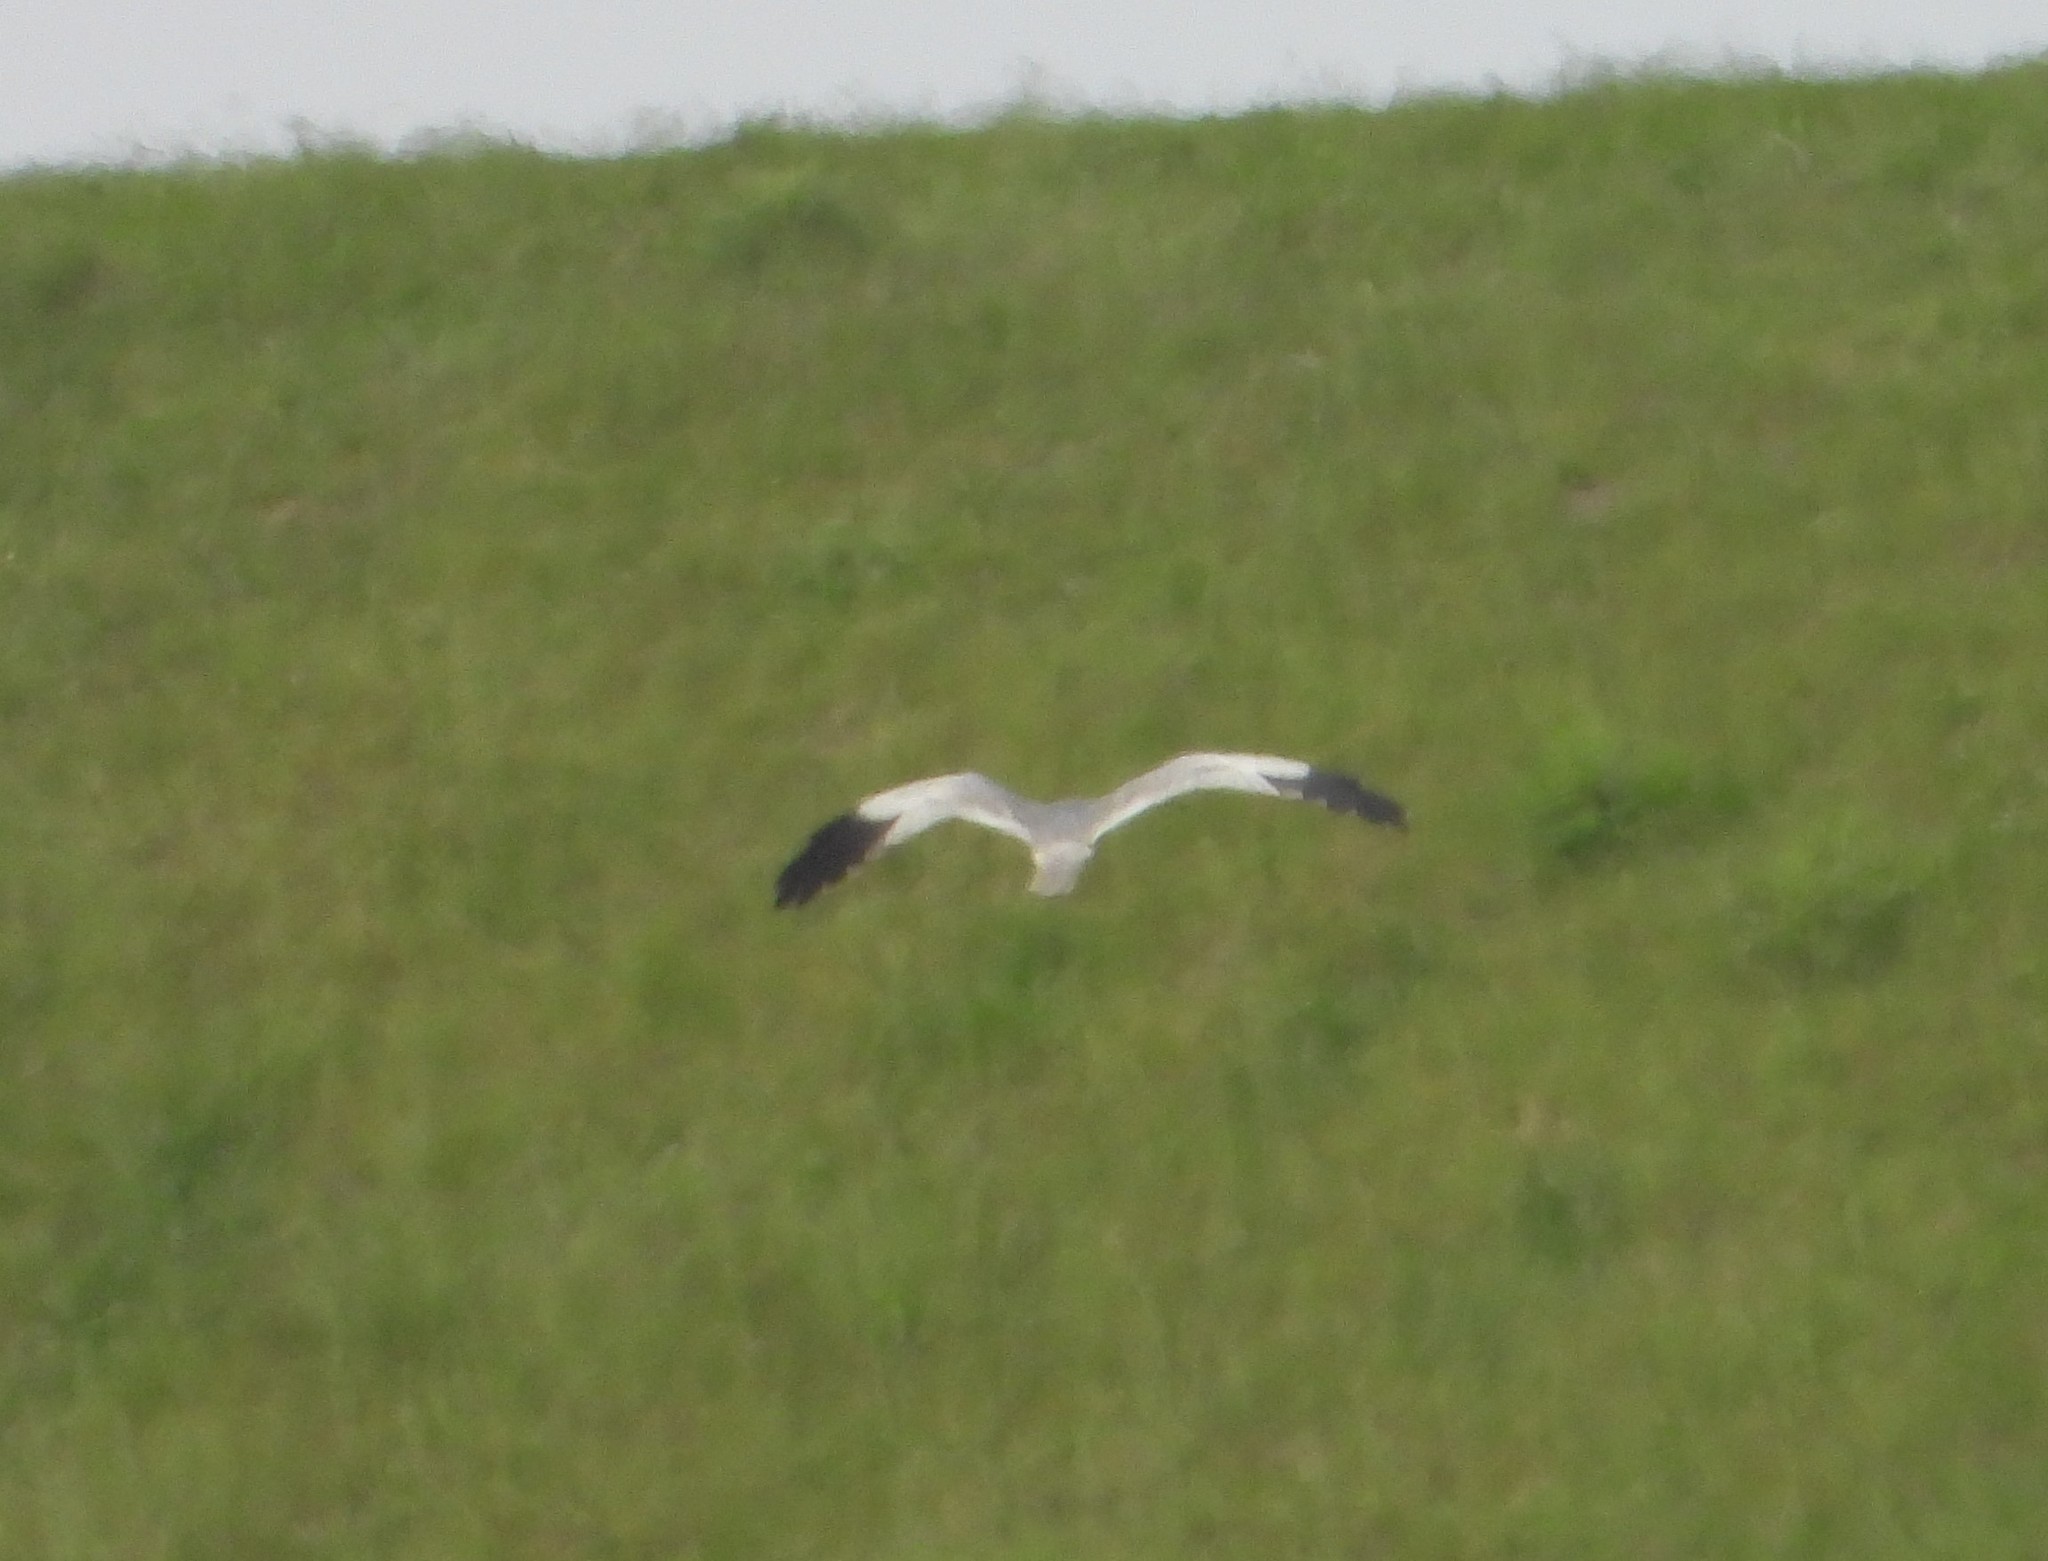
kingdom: Animalia
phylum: Chordata
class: Aves
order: Accipitriformes
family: Accipitridae
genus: Circus
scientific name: Circus pygargus
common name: Montagu's harrier
